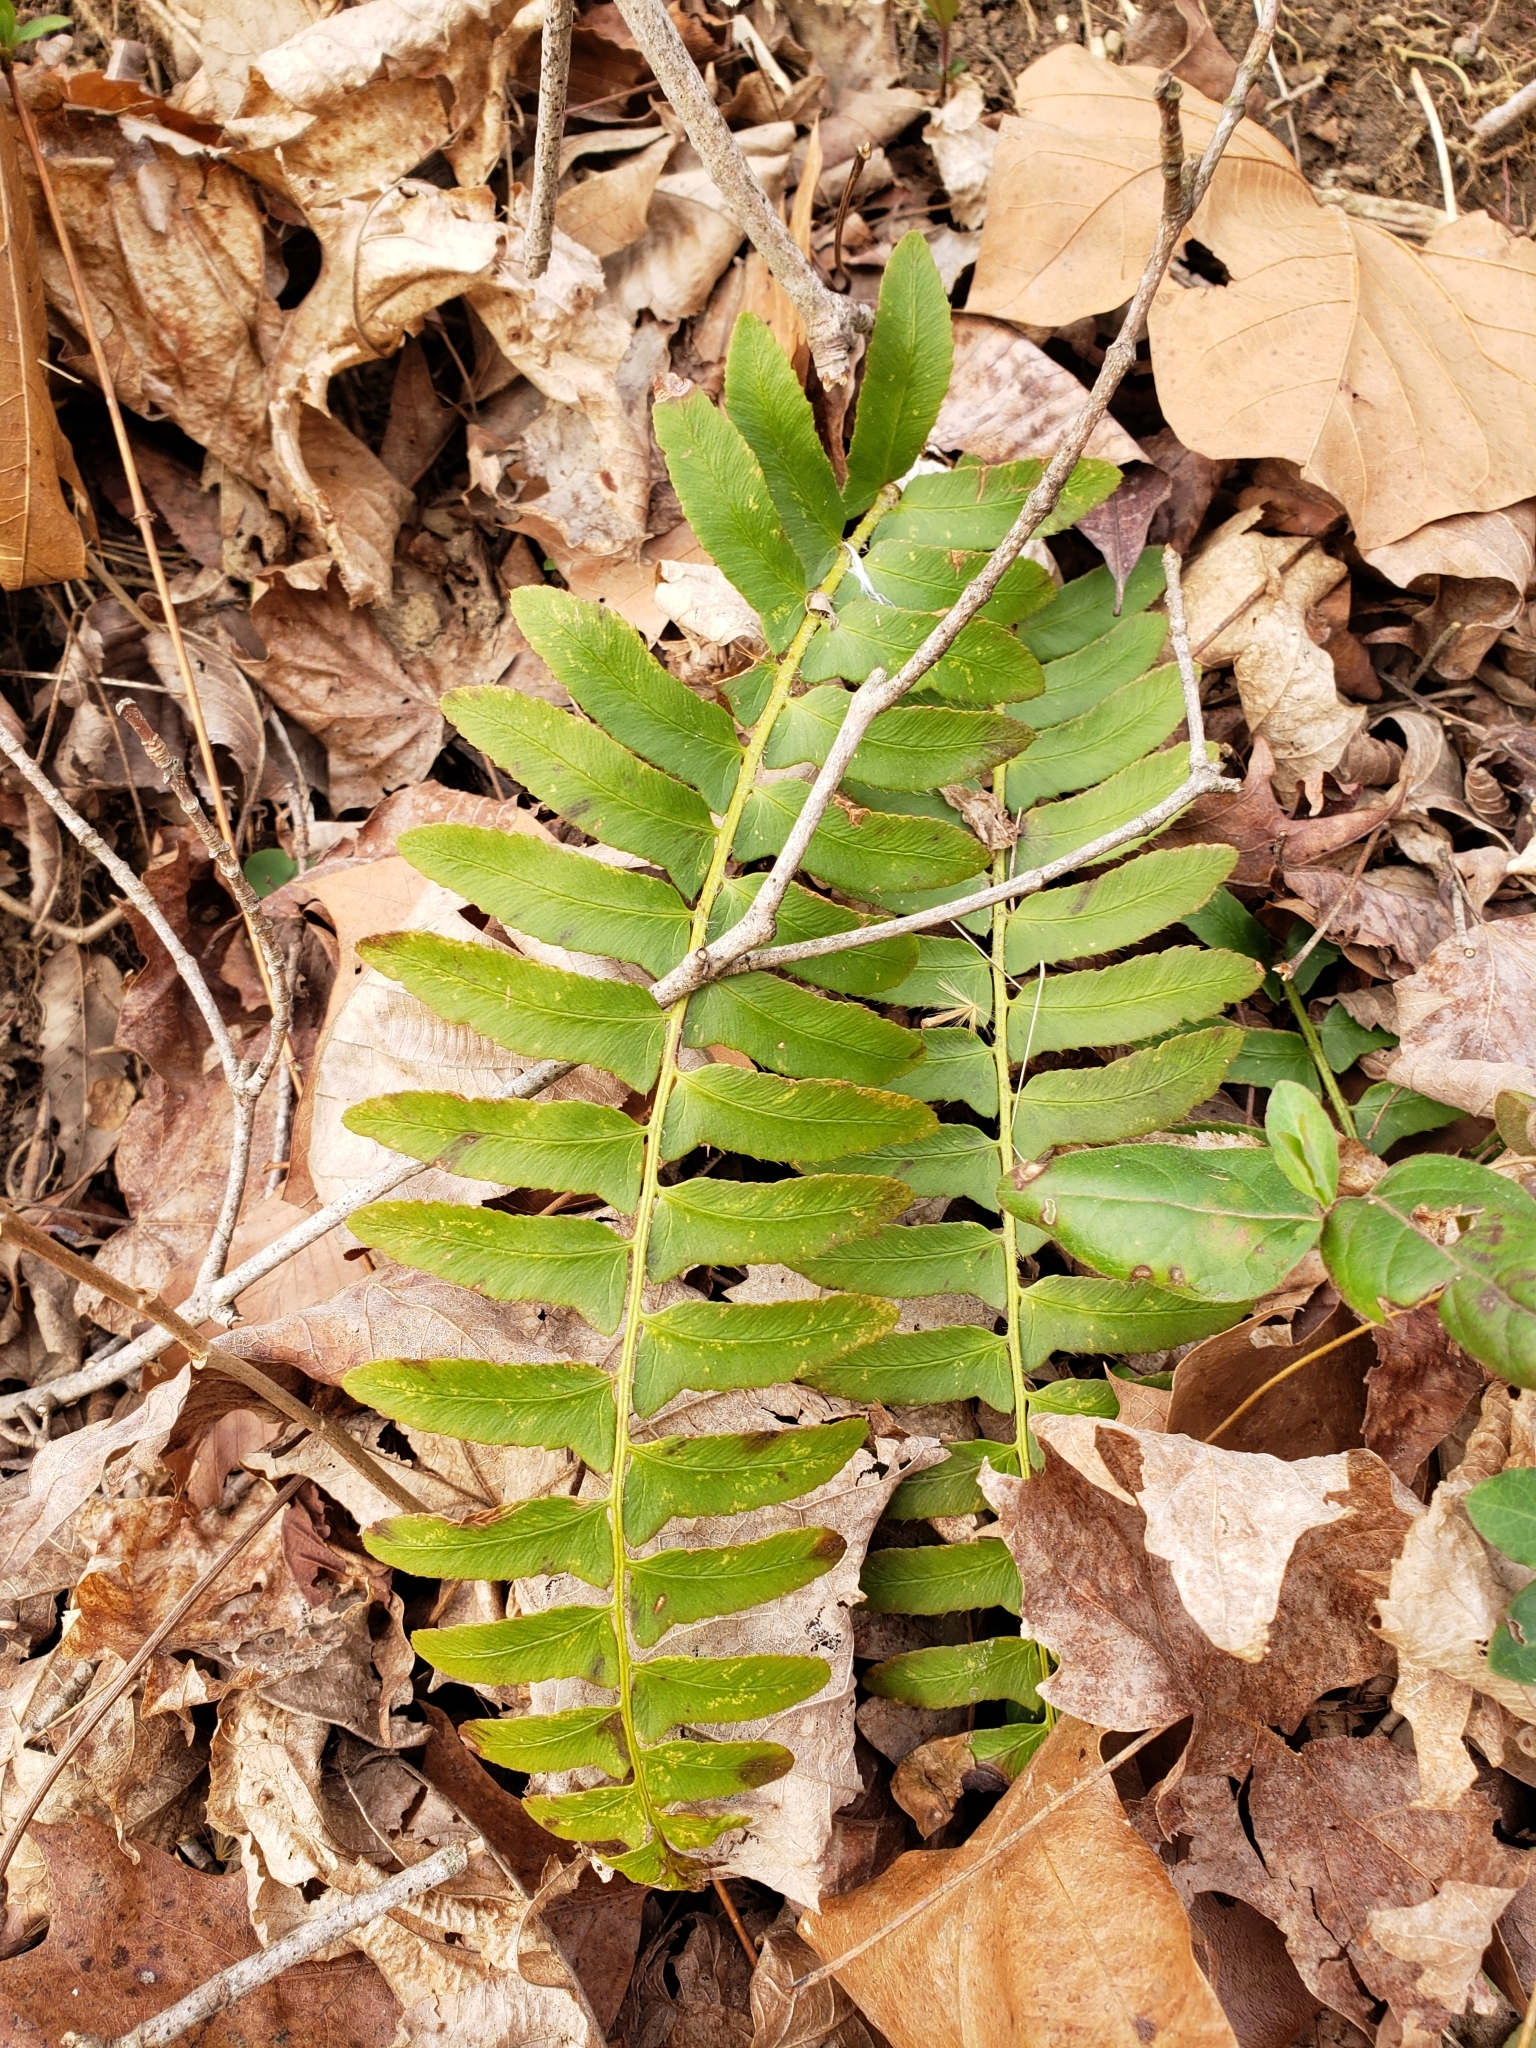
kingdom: Plantae
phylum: Tracheophyta
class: Polypodiopsida
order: Polypodiales
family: Dryopteridaceae
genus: Polystichum
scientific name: Polystichum acrostichoides
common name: Christmas fern
